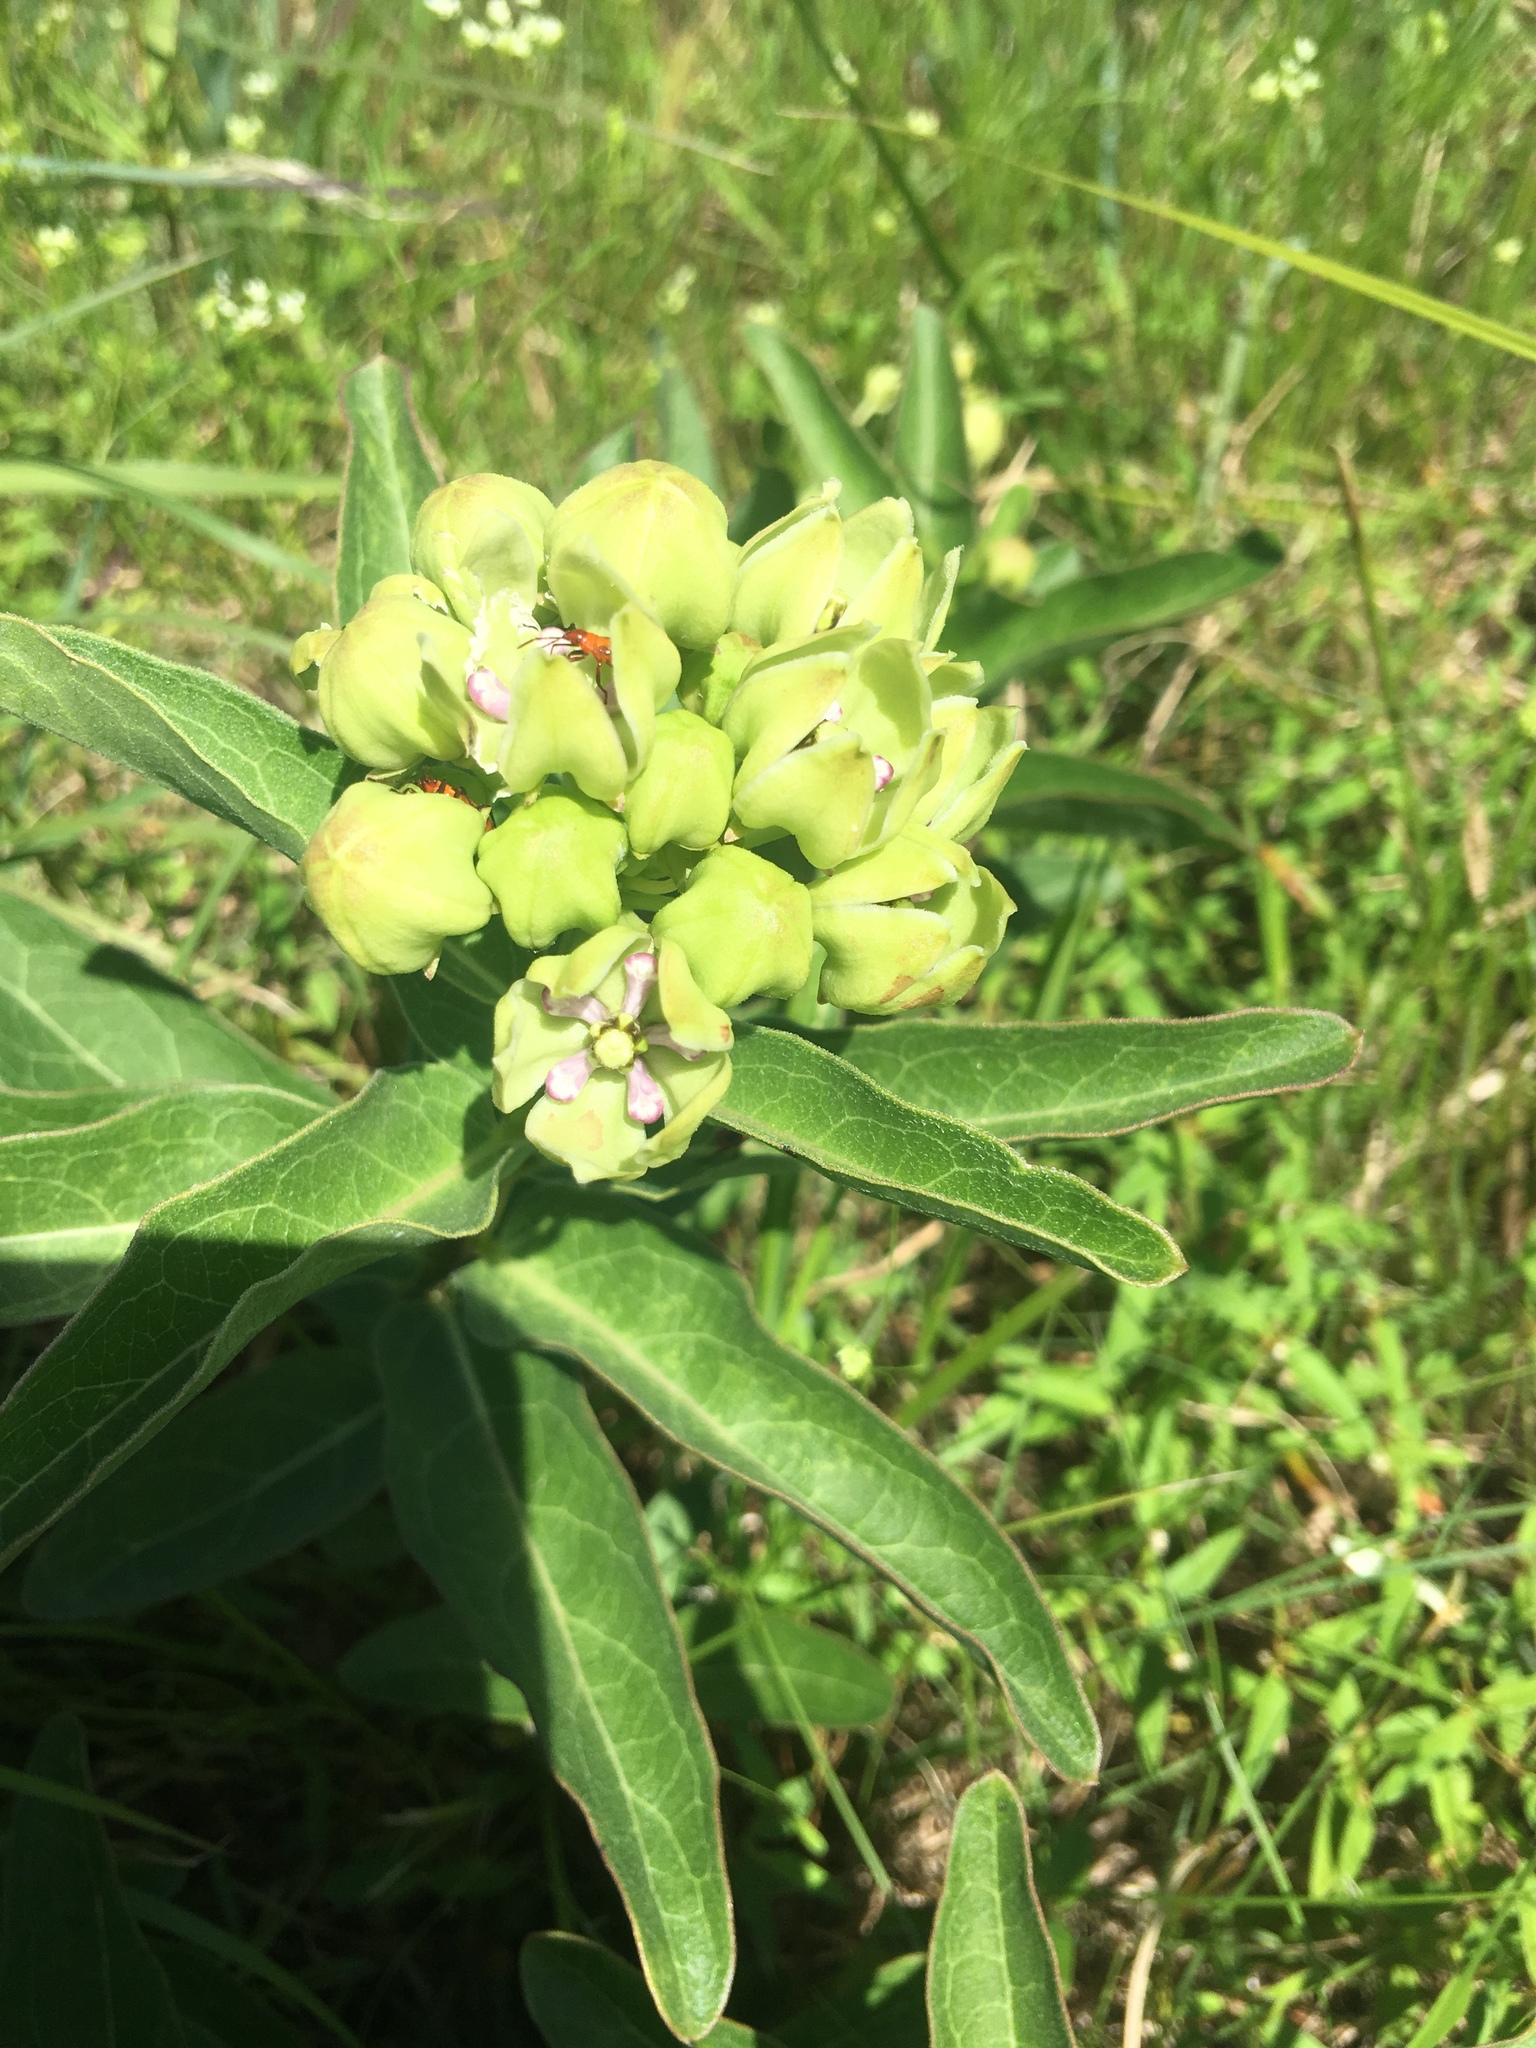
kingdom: Plantae
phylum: Tracheophyta
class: Magnoliopsida
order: Gentianales
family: Apocynaceae
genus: Asclepias
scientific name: Asclepias viridis
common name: Antelope-horns
